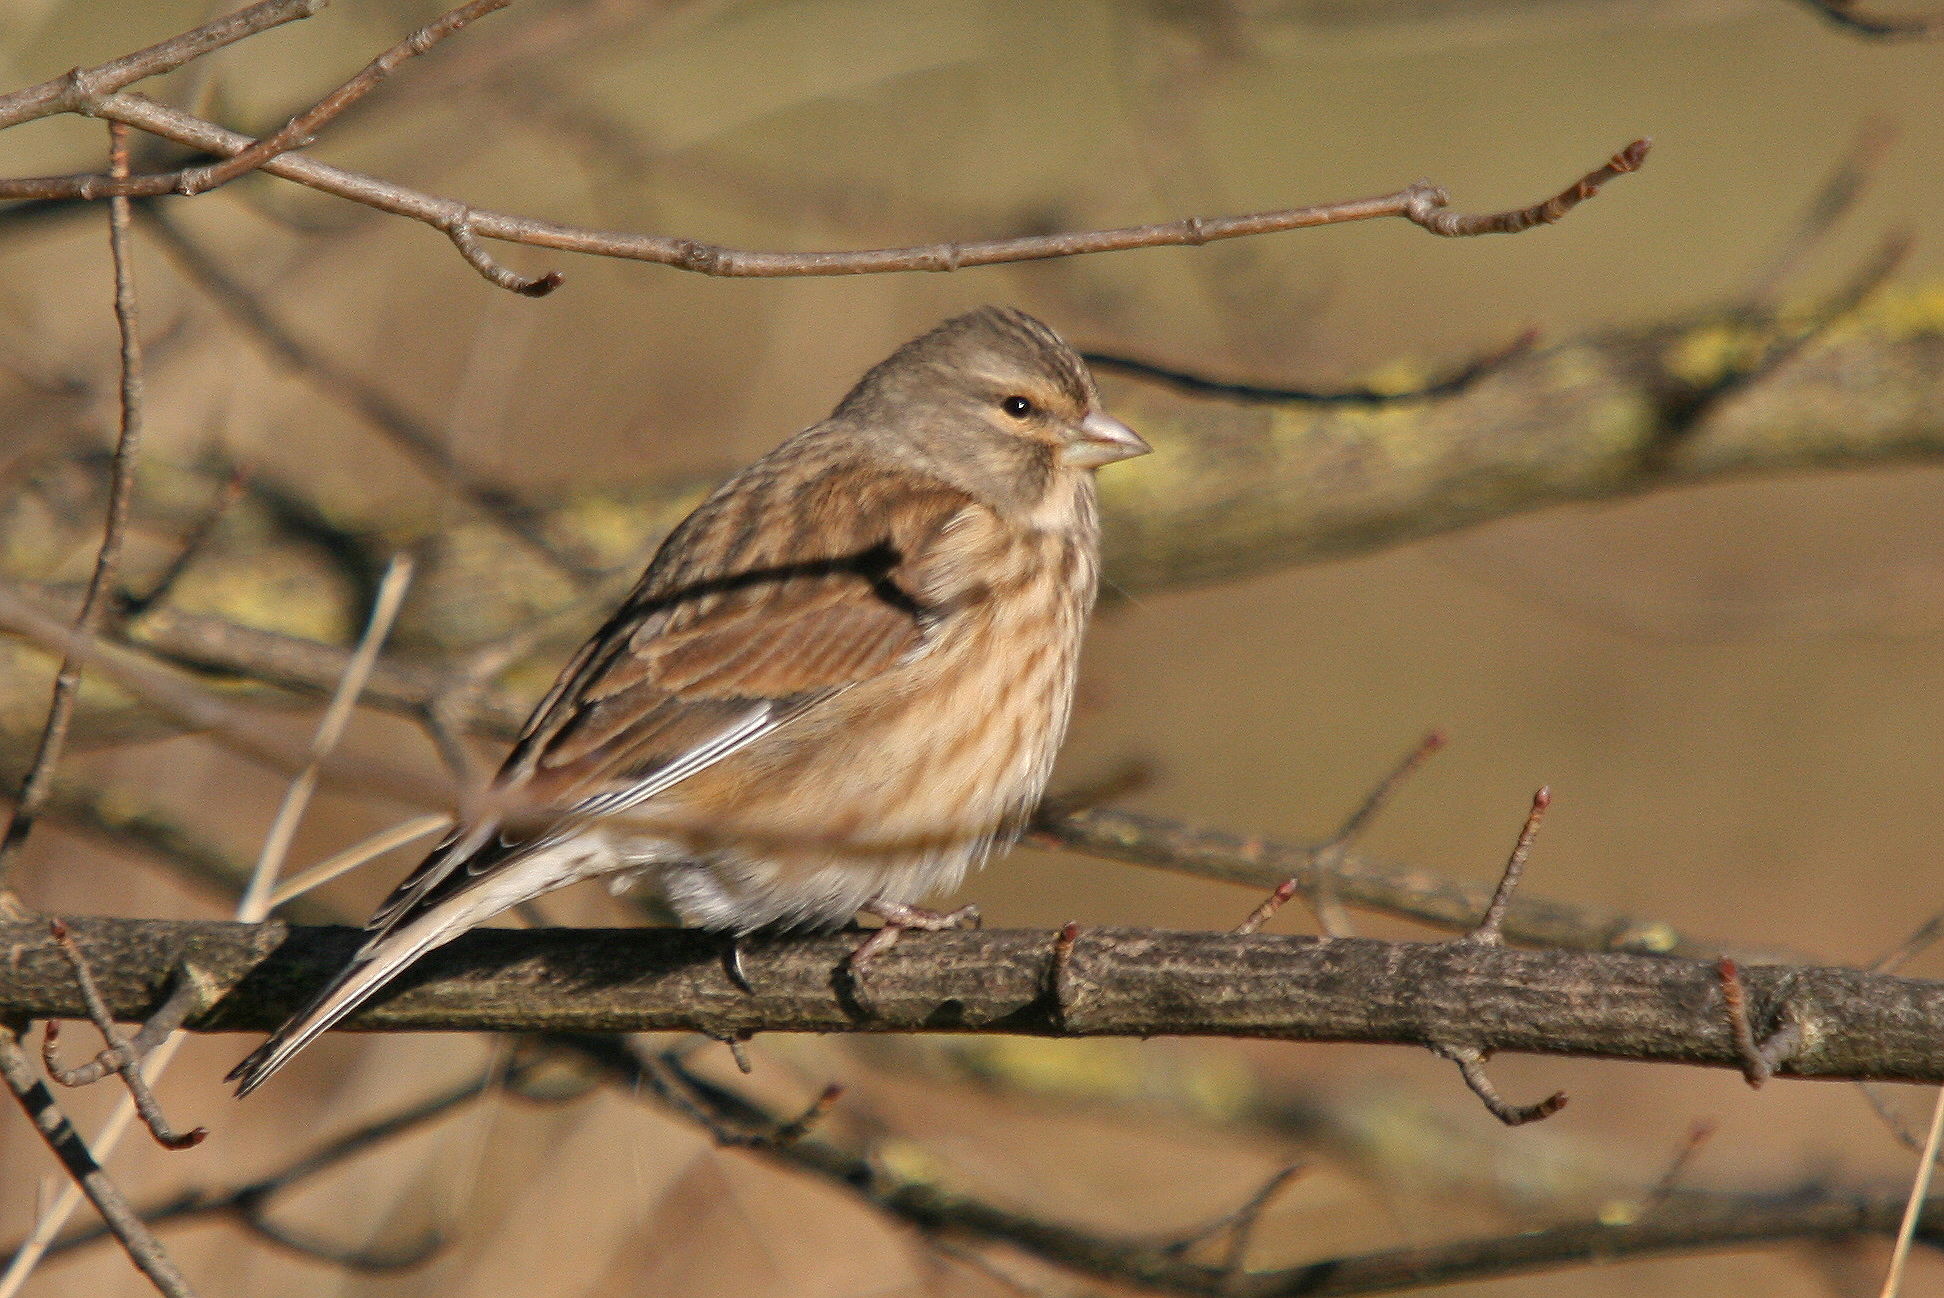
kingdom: Animalia
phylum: Chordata
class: Aves
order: Passeriformes
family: Fringillidae
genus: Linaria
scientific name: Linaria cannabina
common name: Common linnet
